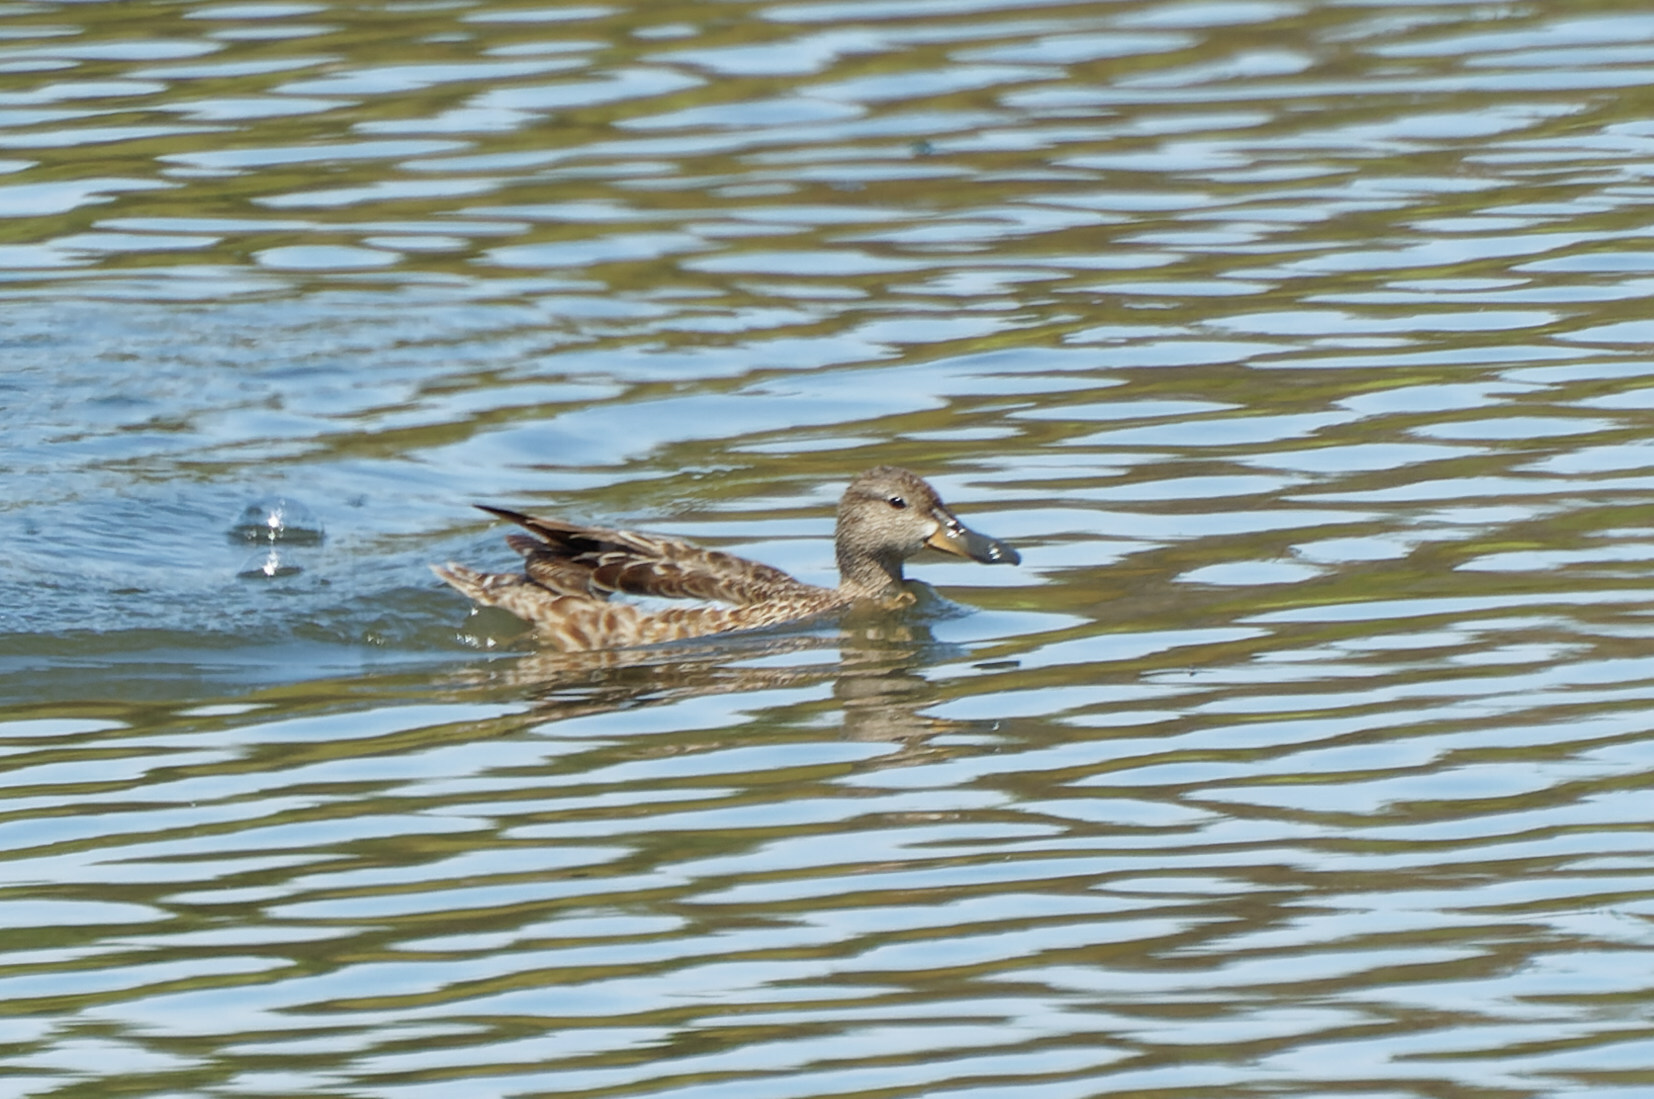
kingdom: Animalia
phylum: Chordata
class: Aves
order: Anseriformes
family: Anatidae
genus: Spatula
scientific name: Spatula cyanoptera
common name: Cinnamon teal
